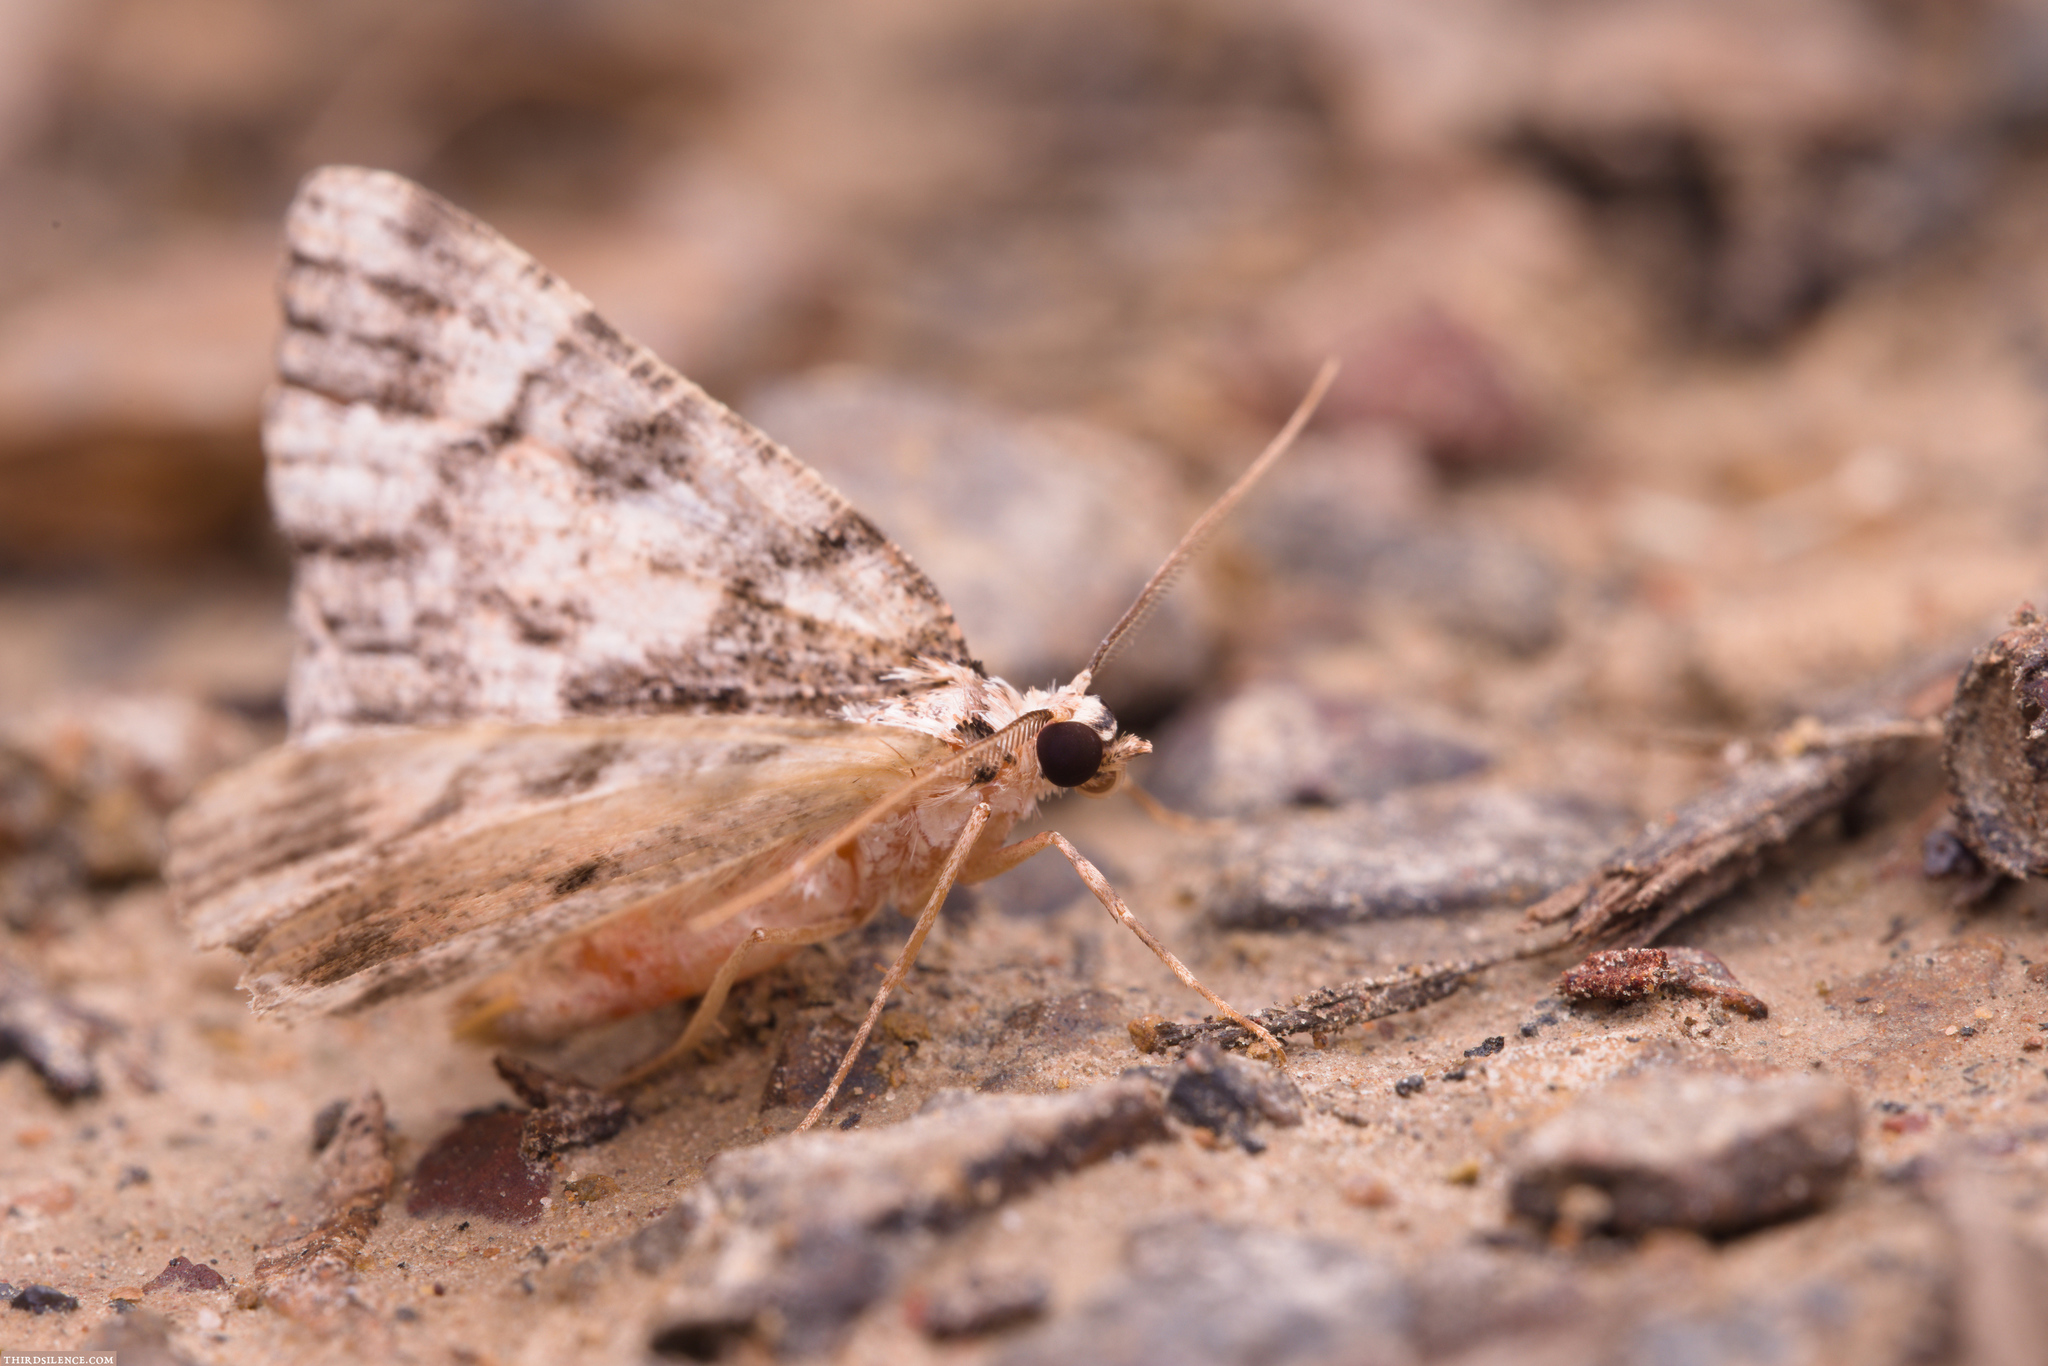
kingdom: Animalia
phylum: Arthropoda
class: Insecta
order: Lepidoptera
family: Geometridae
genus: Aeolochroma
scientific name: Aeolochroma metarhodata
